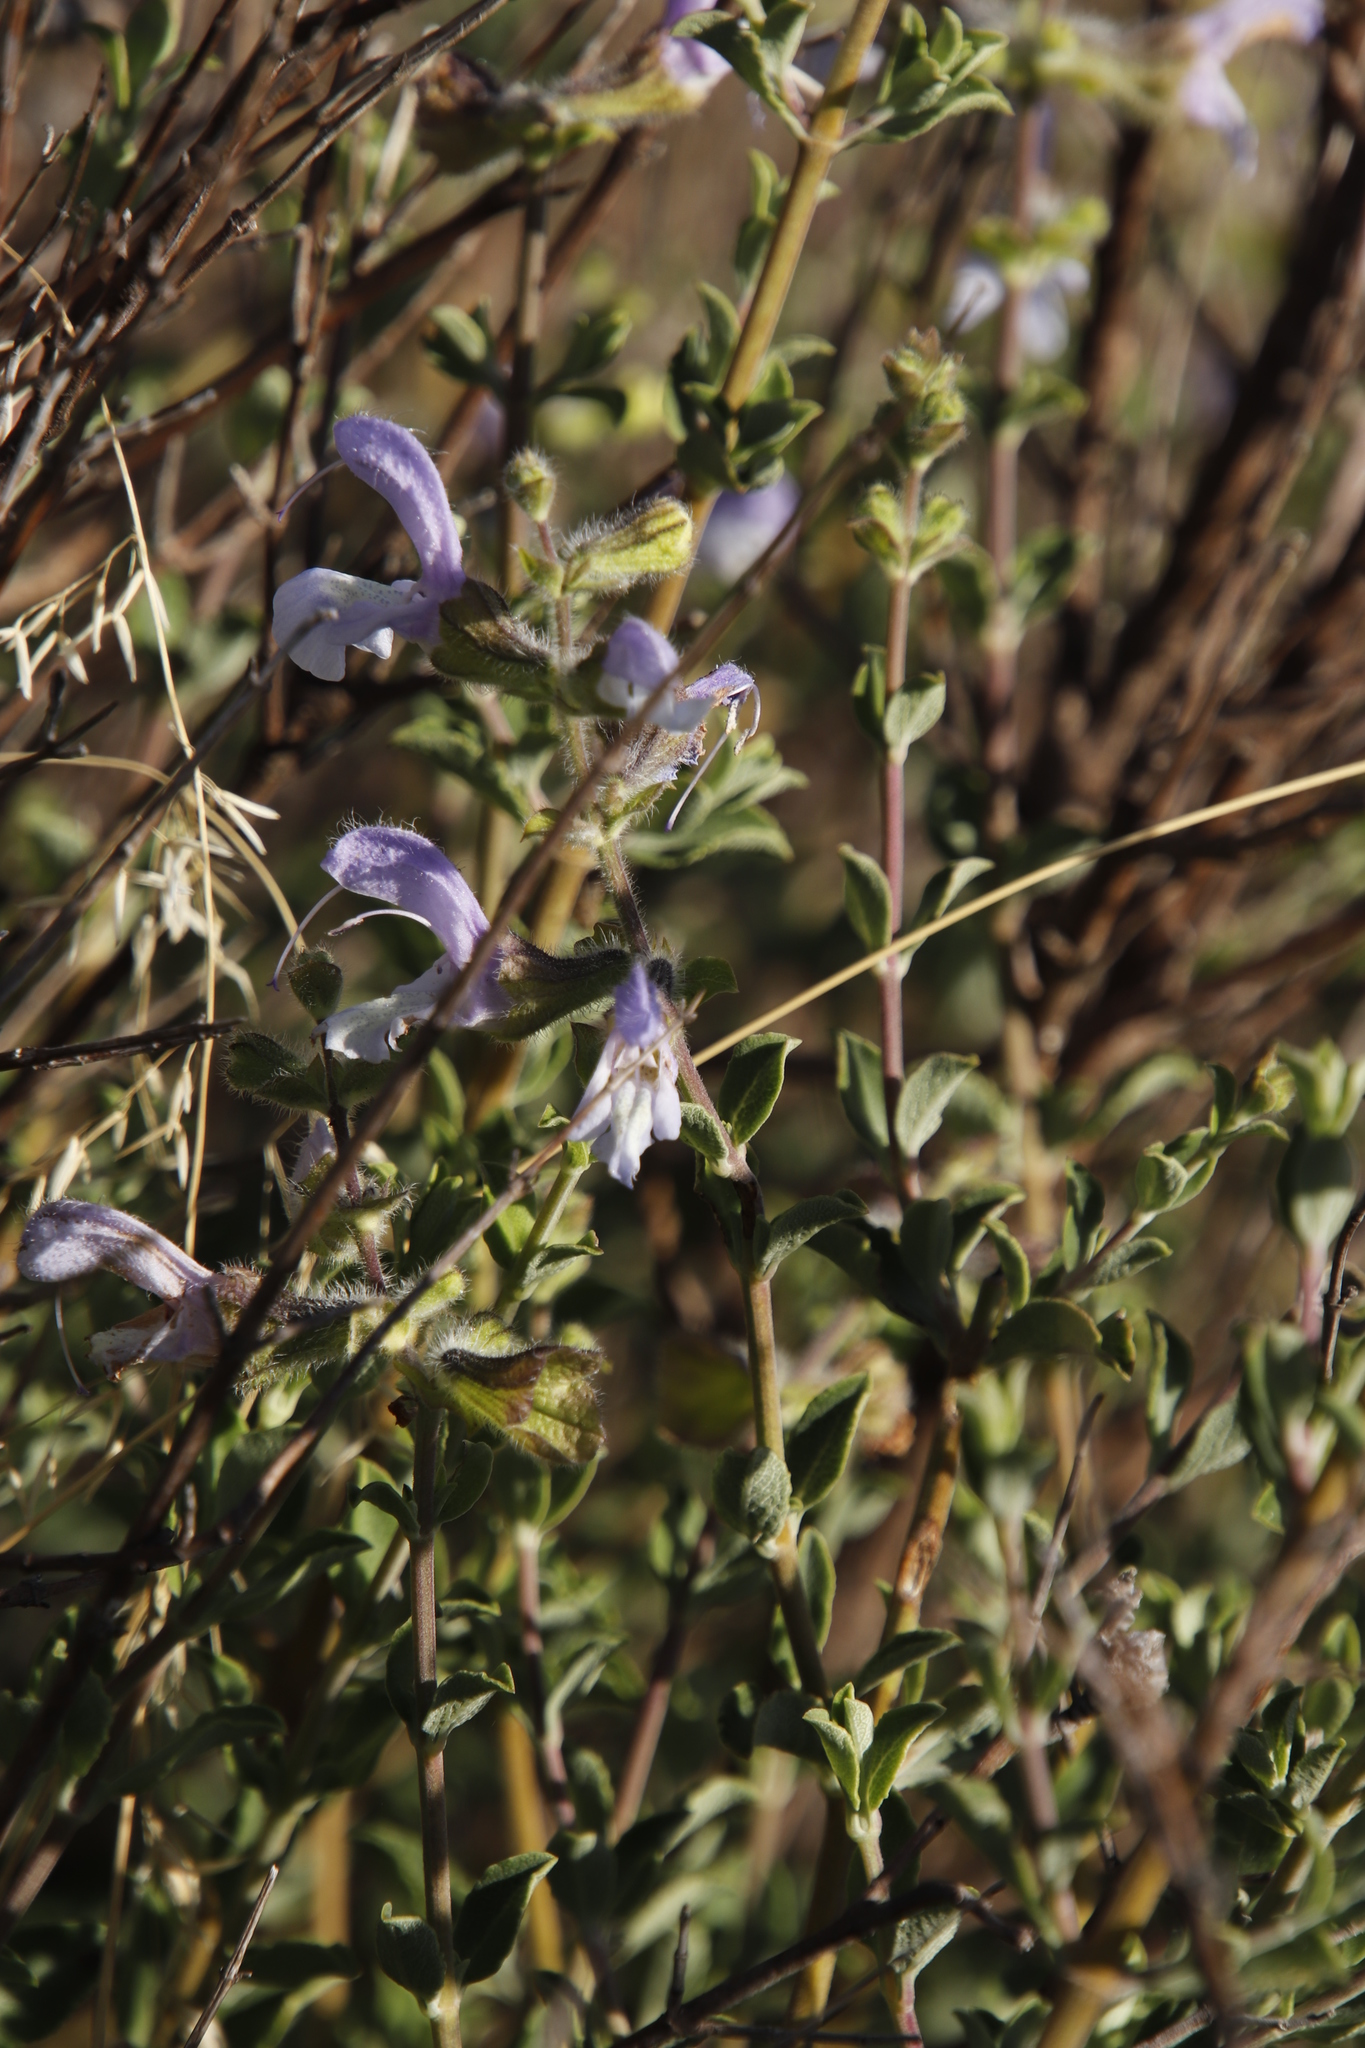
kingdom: Plantae
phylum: Tracheophyta
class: Magnoliopsida
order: Lamiales
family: Lamiaceae
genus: Salvia
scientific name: Salvia africana
